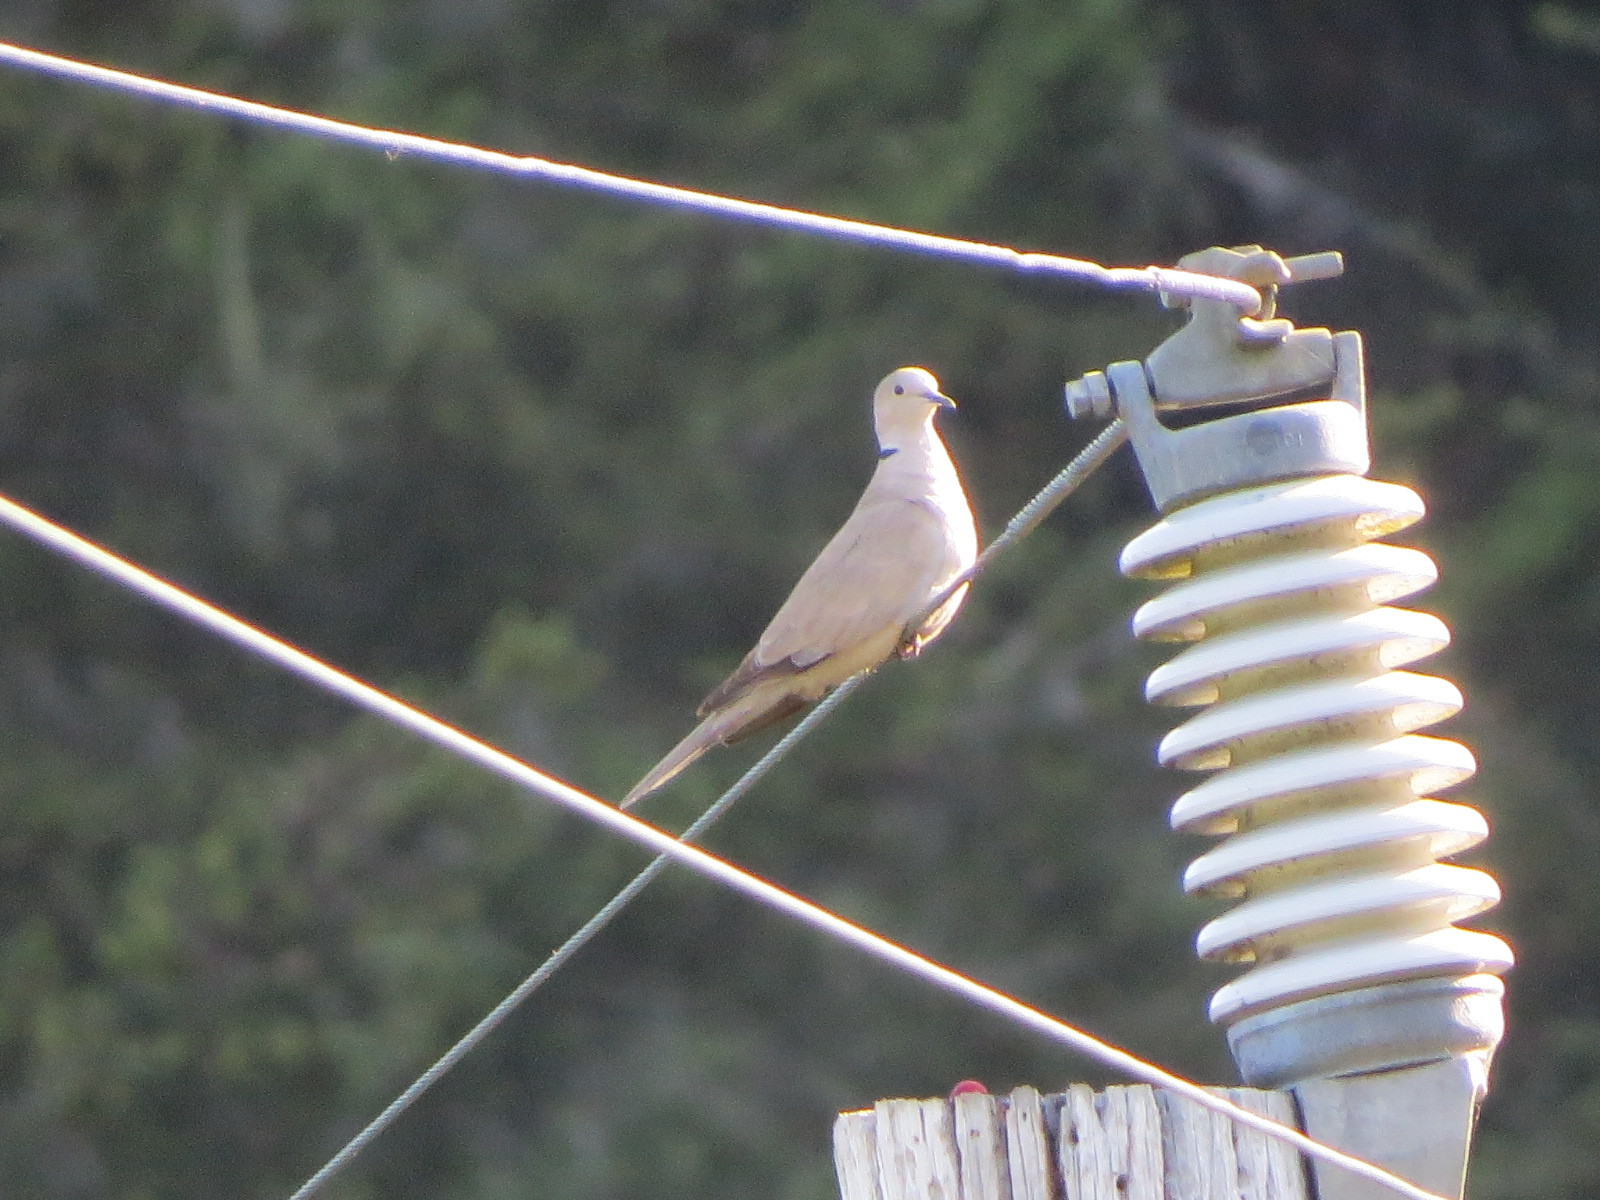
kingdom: Animalia
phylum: Chordata
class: Aves
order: Columbiformes
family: Columbidae
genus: Streptopelia
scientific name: Streptopelia decaocto
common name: Eurasian collared dove
